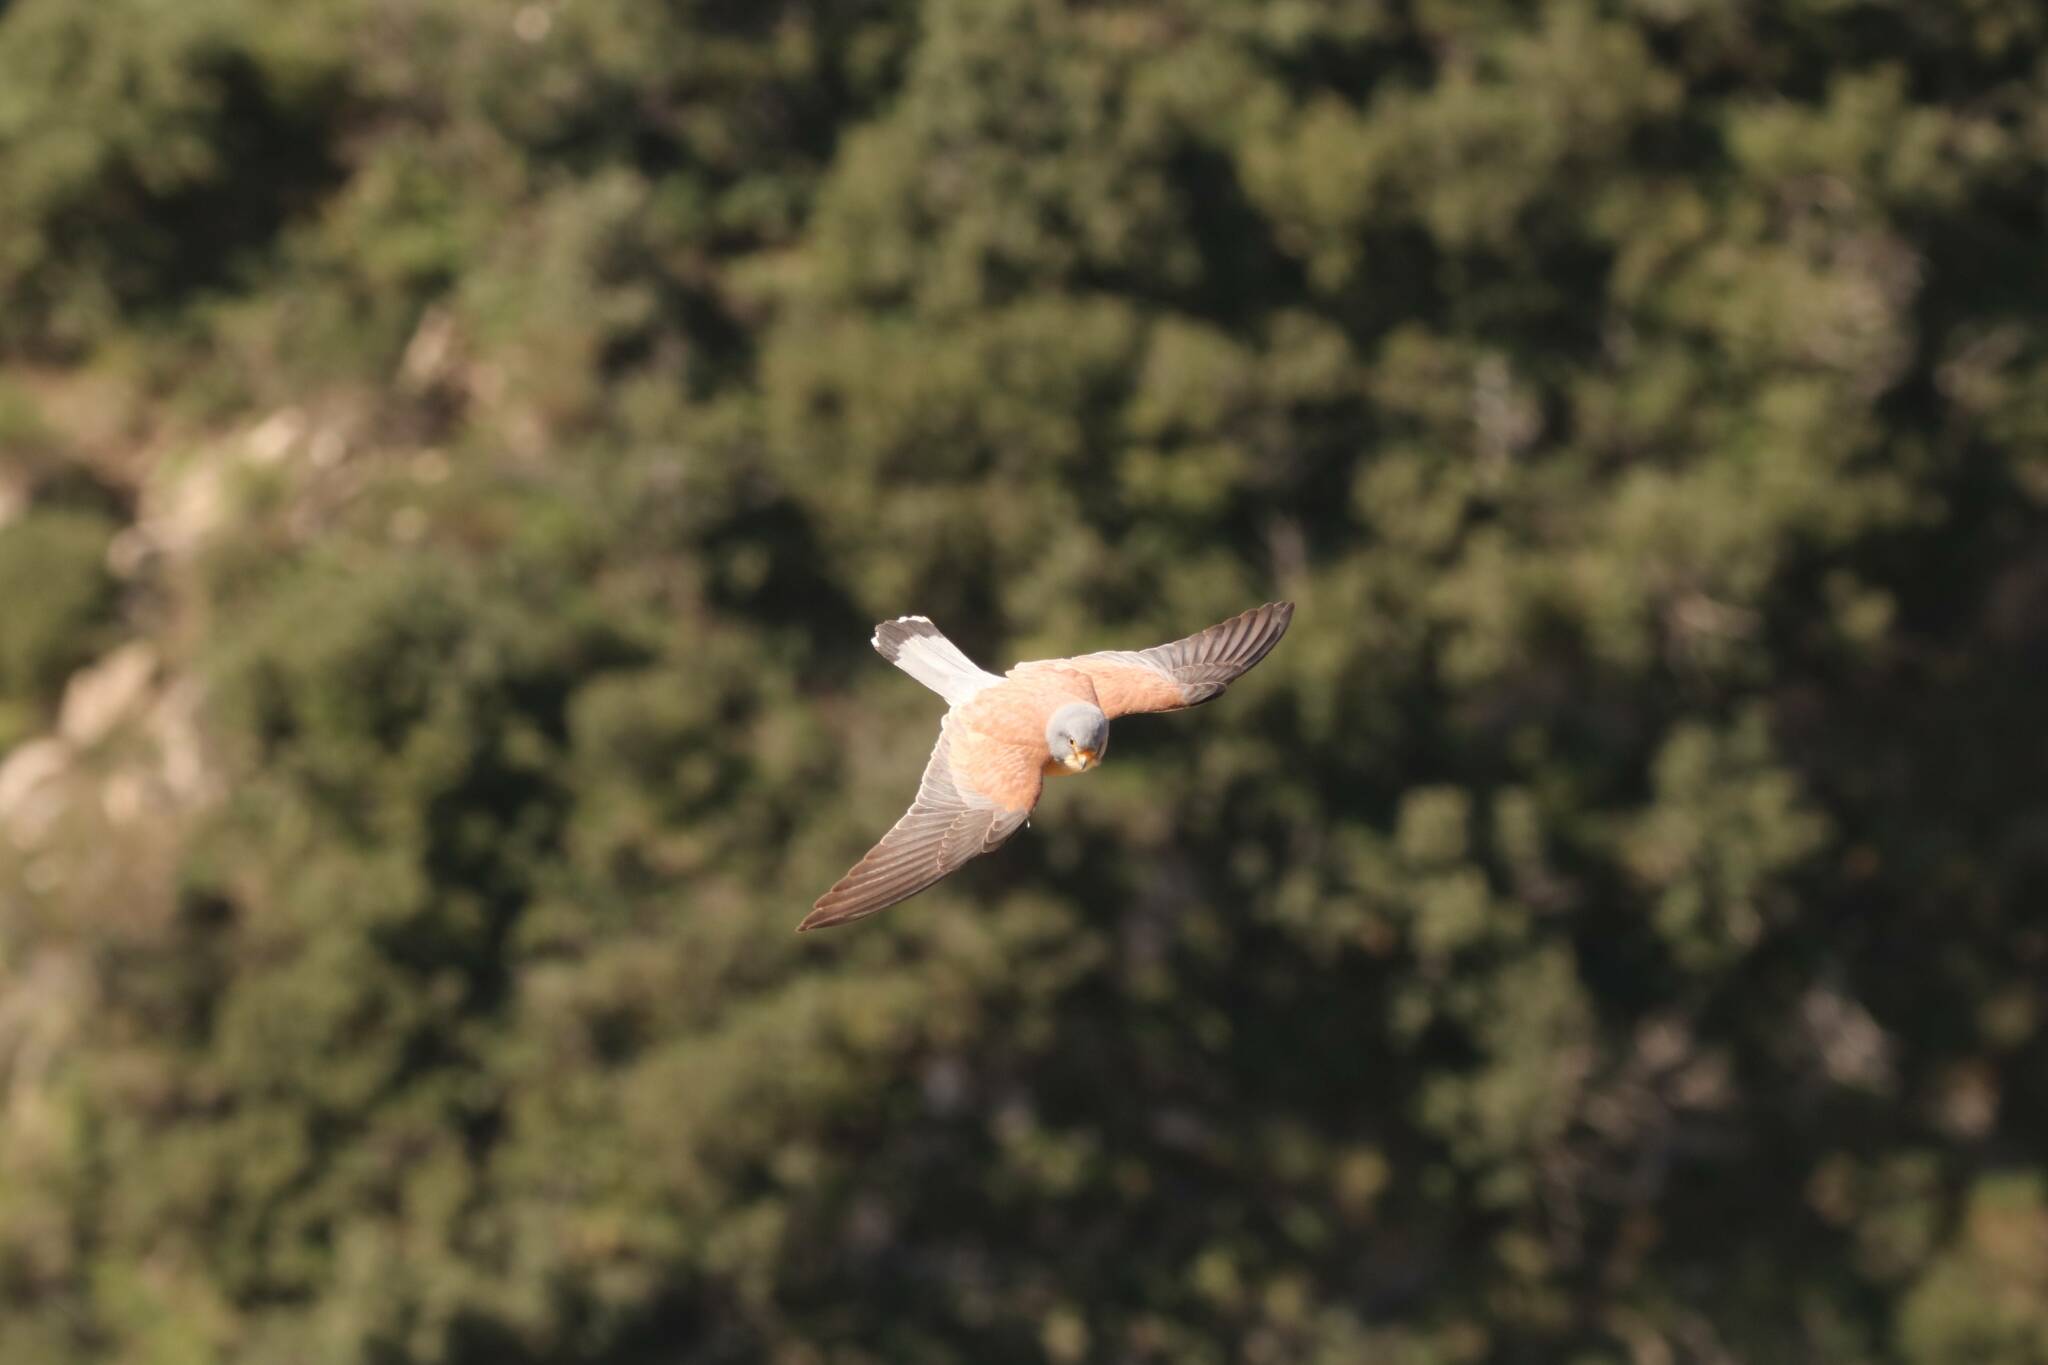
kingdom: Animalia
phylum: Chordata
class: Aves
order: Falconiformes
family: Falconidae
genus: Falco
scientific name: Falco naumanni
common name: Lesser kestrel
